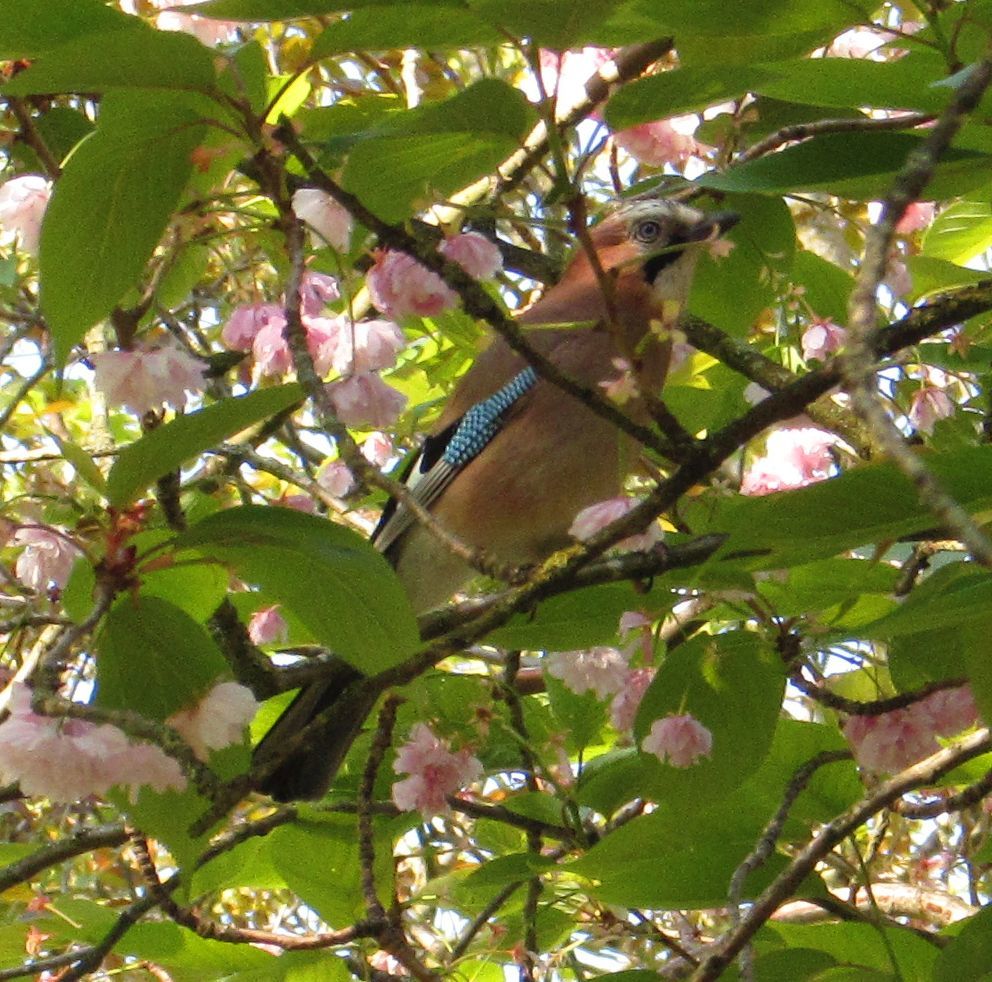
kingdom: Animalia
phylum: Chordata
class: Aves
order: Passeriformes
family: Corvidae
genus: Garrulus
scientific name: Garrulus glandarius
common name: Eurasian jay
